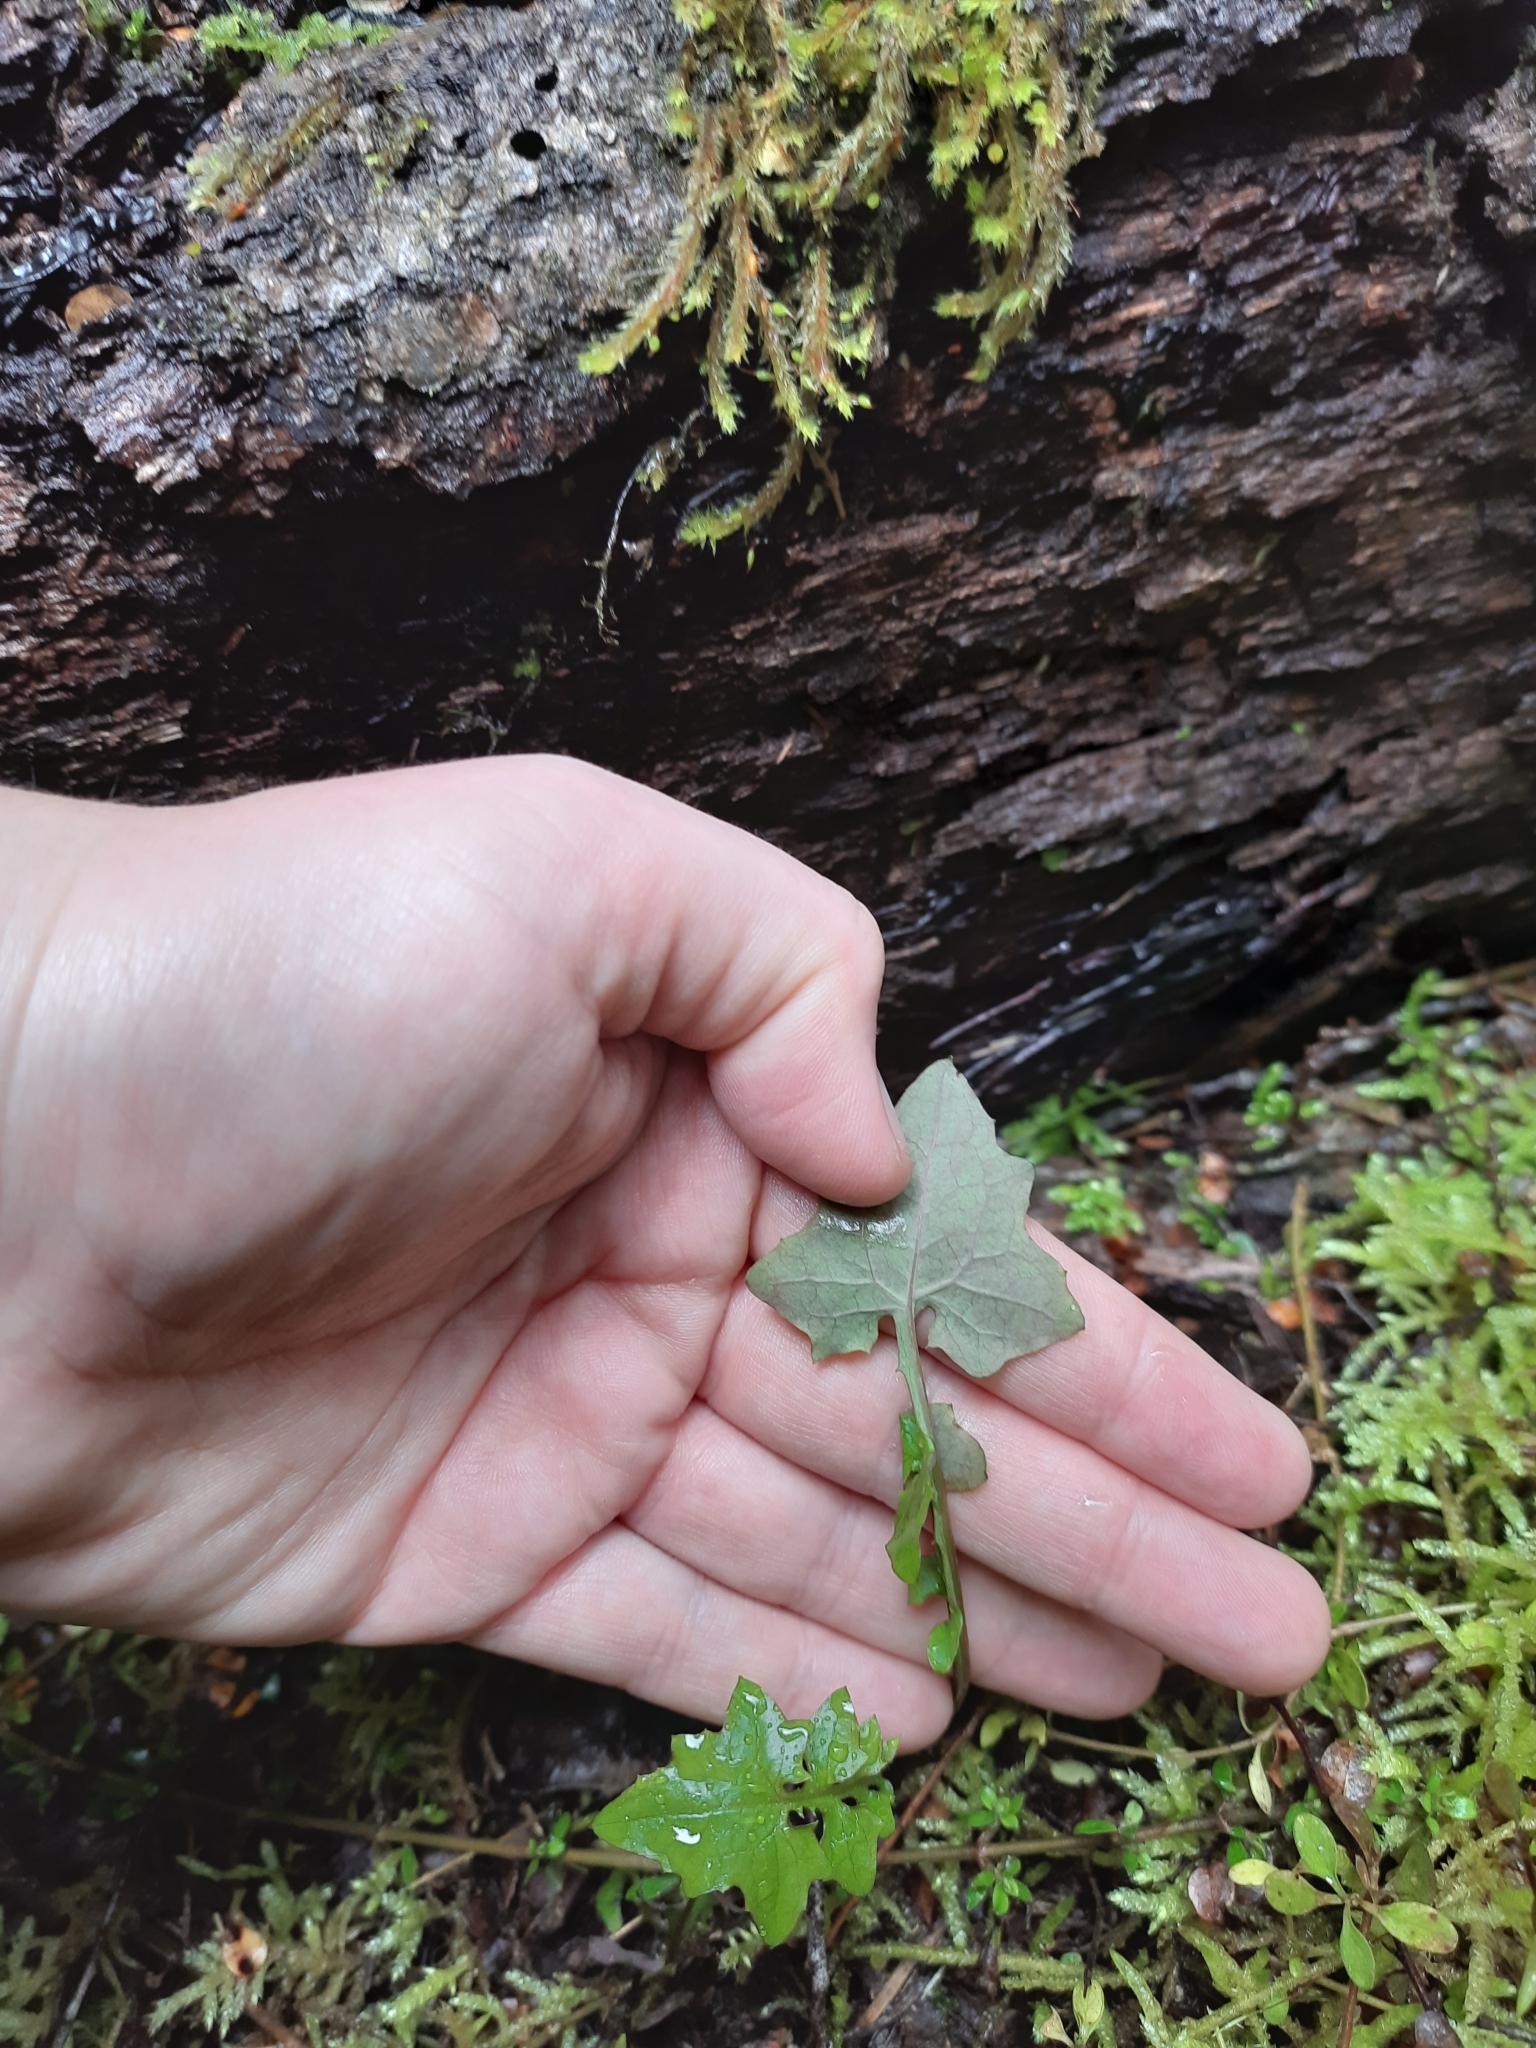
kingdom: Plantae
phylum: Tracheophyta
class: Magnoliopsida
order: Asterales
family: Asteraceae
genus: Mycelis
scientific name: Mycelis muralis
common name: Wall lettuce
